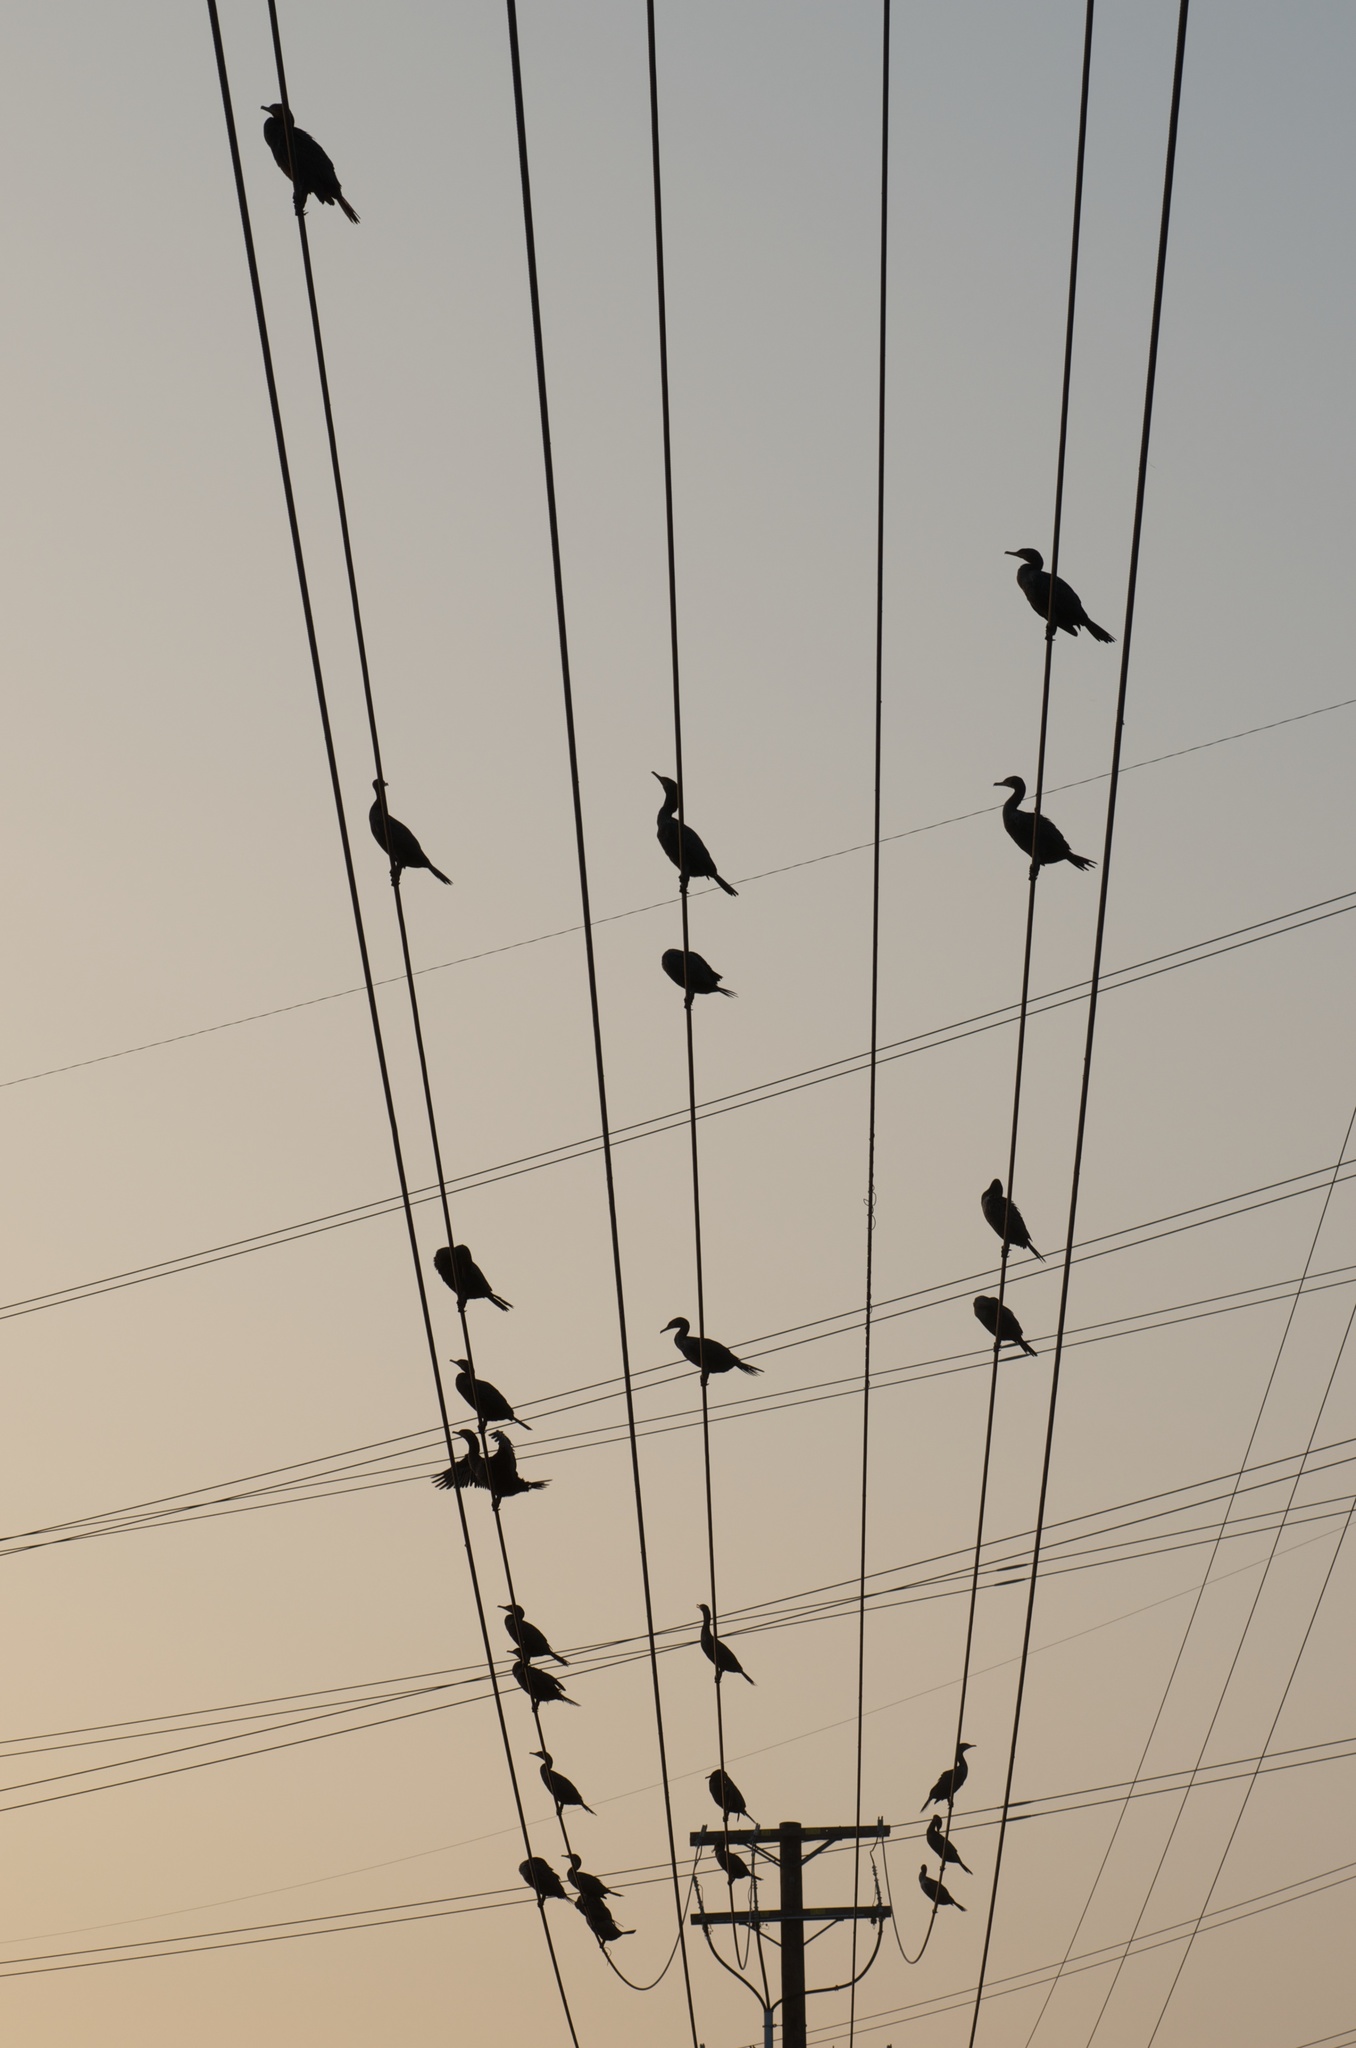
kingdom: Animalia
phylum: Chordata
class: Aves
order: Suliformes
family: Phalacrocoracidae
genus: Phalacrocorax
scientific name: Phalacrocorax auritus
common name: Double-crested cormorant
